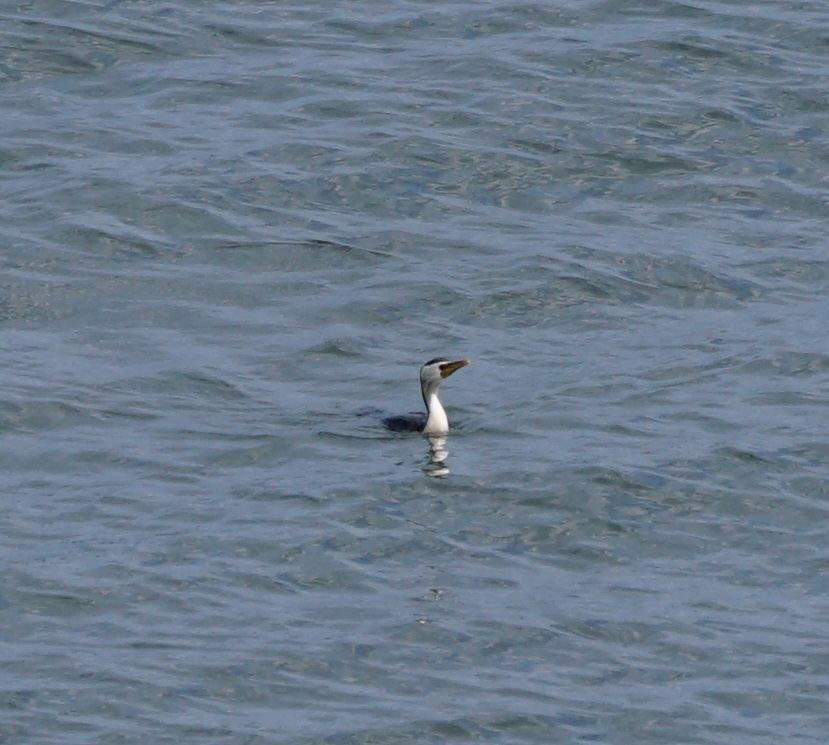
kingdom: Animalia
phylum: Chordata
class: Aves
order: Suliformes
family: Phalacrocoracidae
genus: Microcarbo
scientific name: Microcarbo melanoleucos
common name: Little pied cormorant
